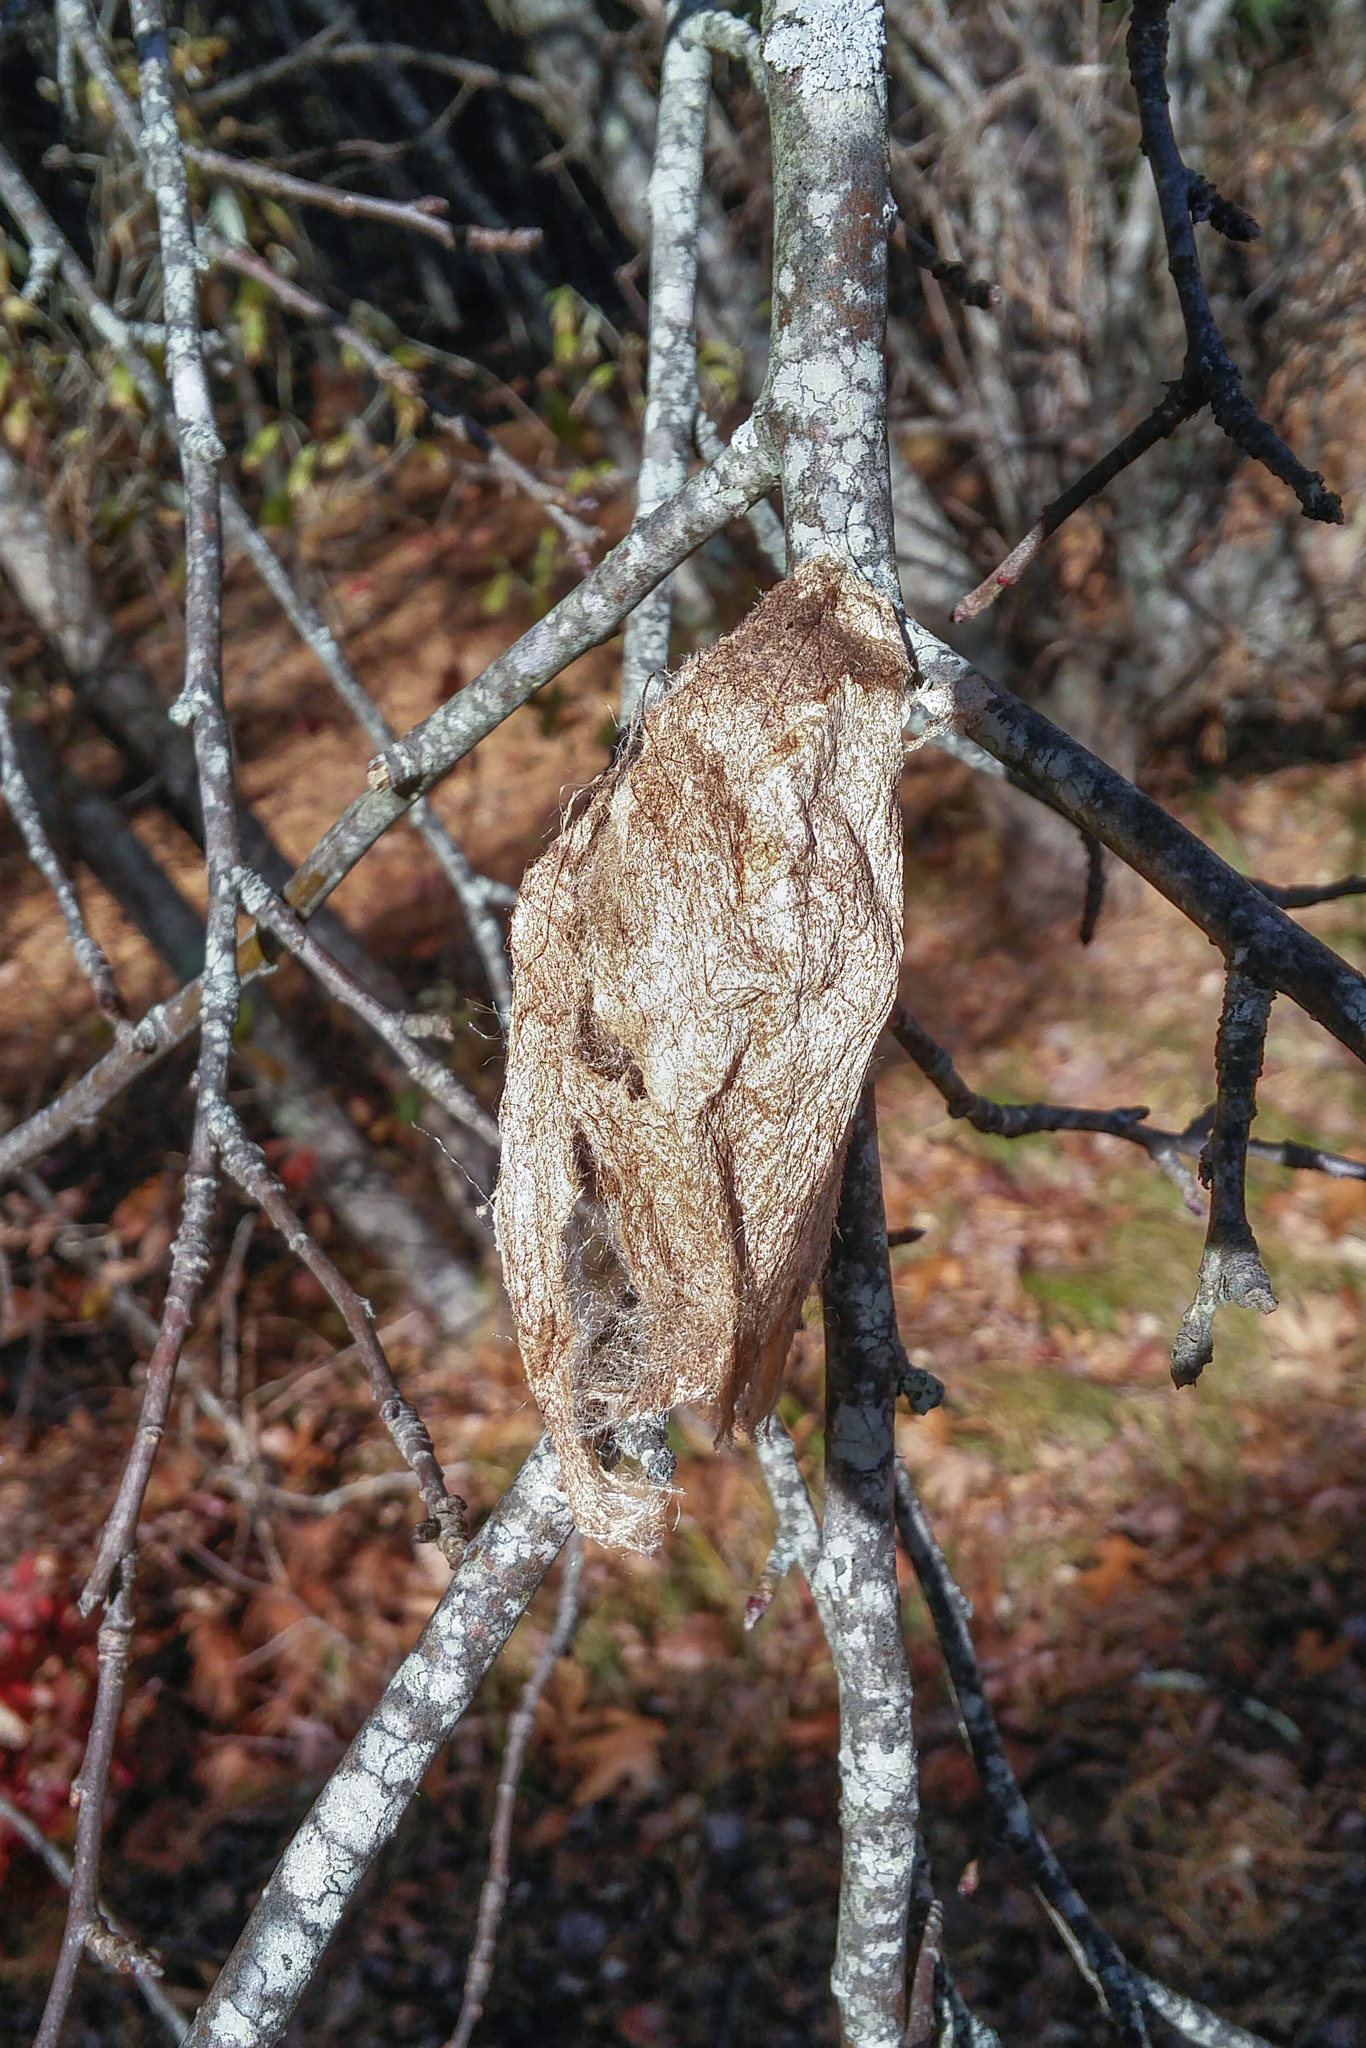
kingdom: Animalia
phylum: Arthropoda
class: Insecta
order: Lepidoptera
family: Saturniidae
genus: Hyalophora
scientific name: Hyalophora cecropia
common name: Cecropia silkmoth
